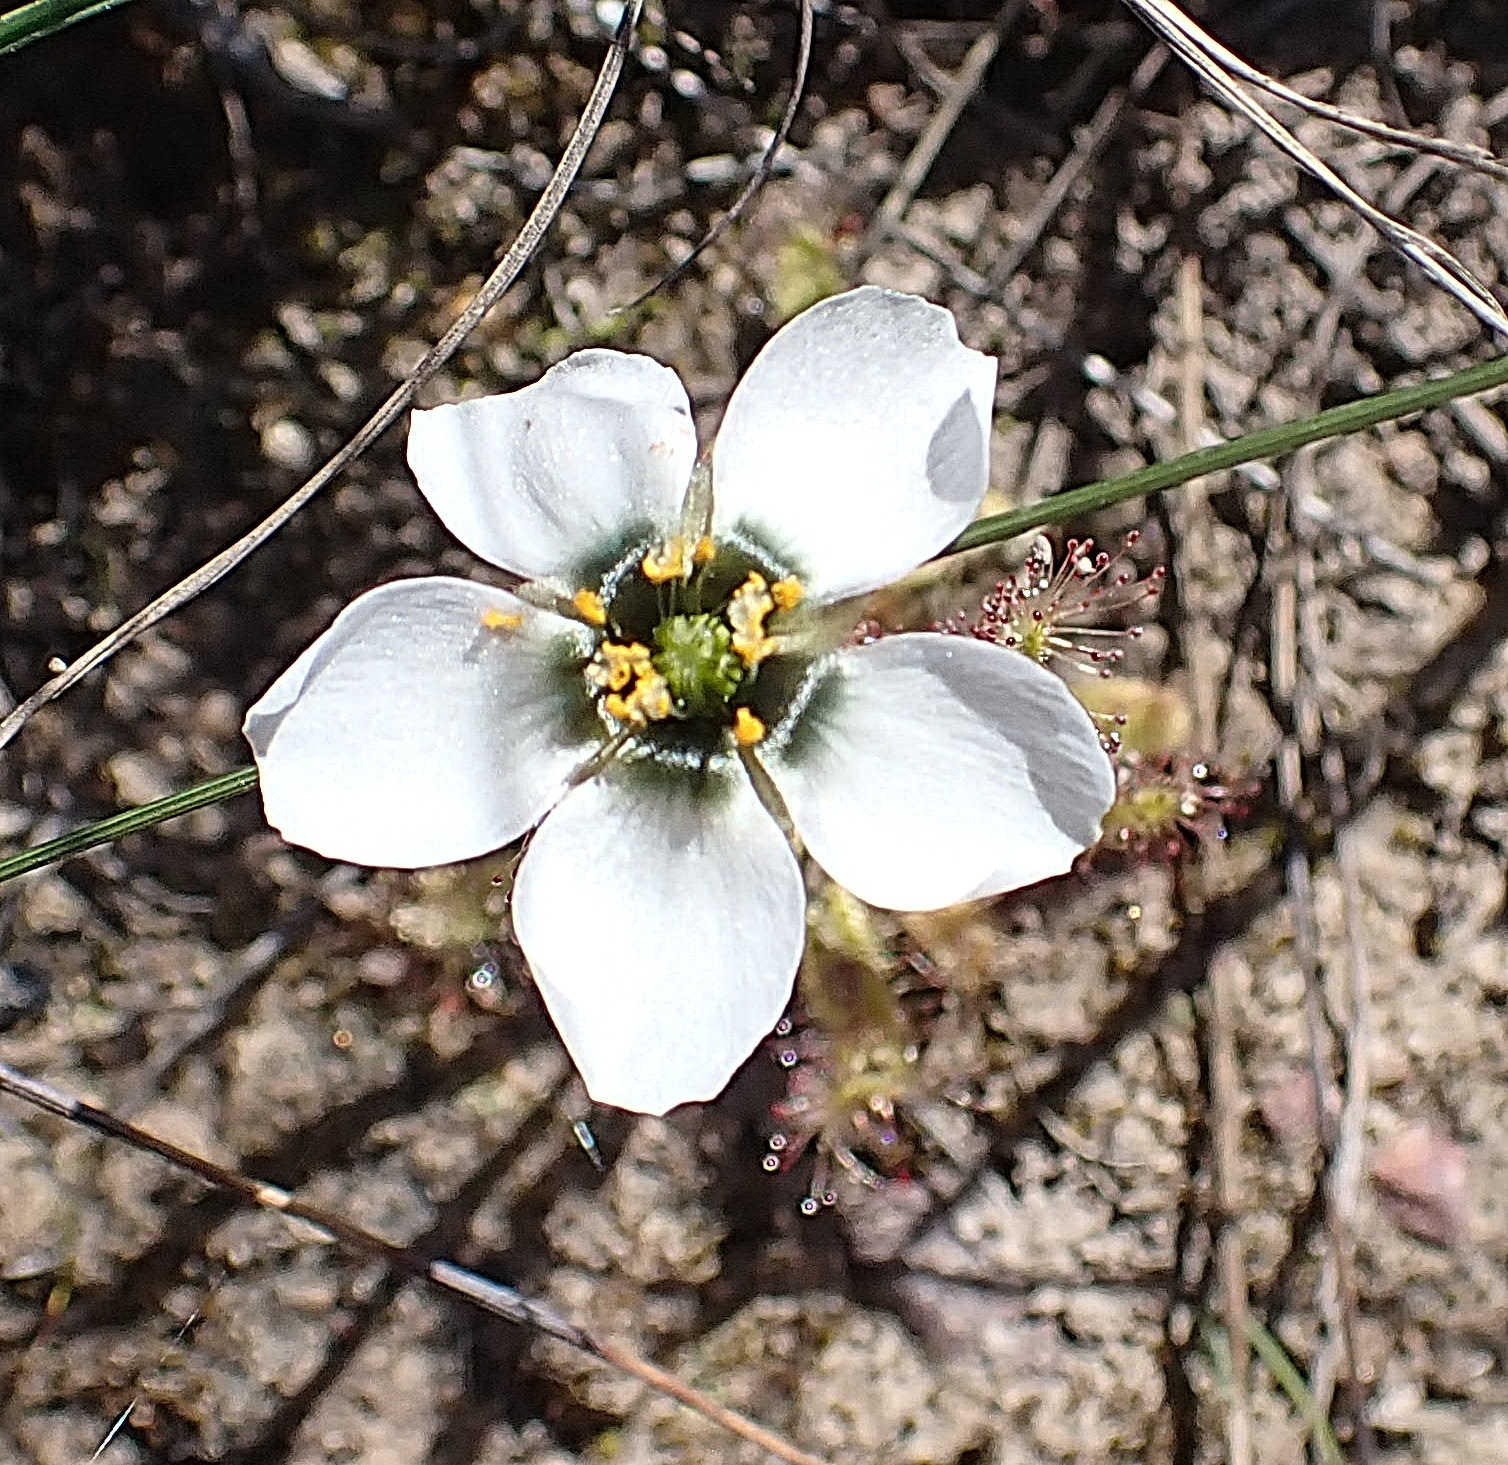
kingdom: Plantae
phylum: Tracheophyta
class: Magnoliopsida
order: Caryophyllales
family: Droseraceae
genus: Drosera
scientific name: Drosera cistiflora
